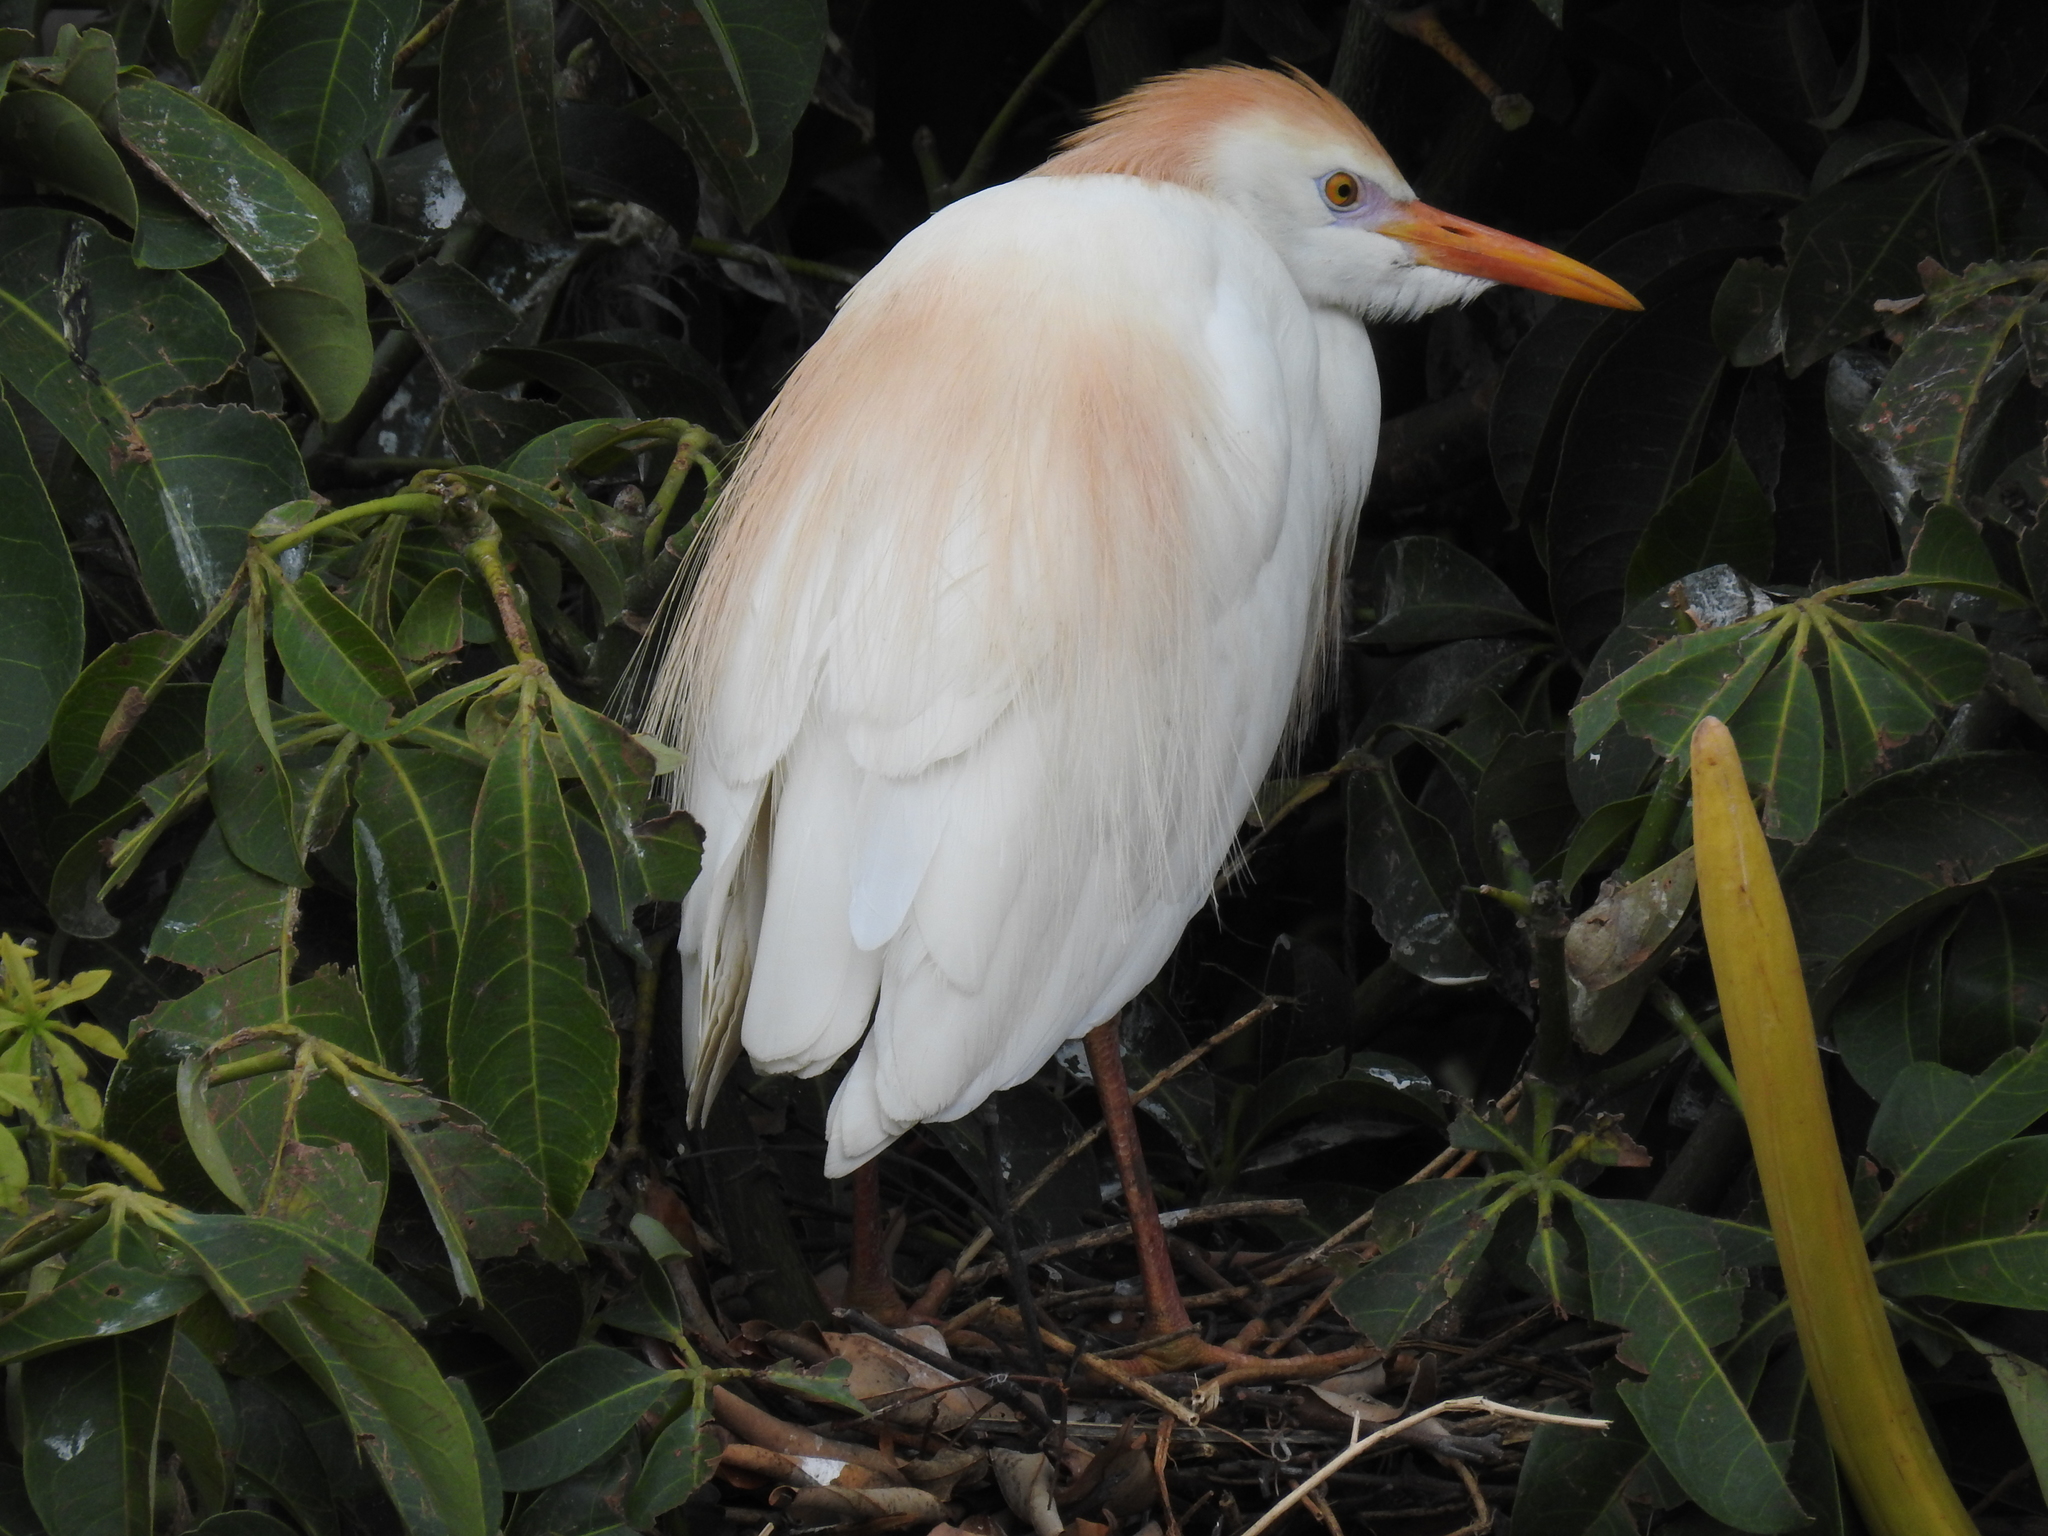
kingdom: Animalia
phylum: Chordata
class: Aves
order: Pelecaniformes
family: Ardeidae
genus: Bubulcus
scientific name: Bubulcus ibis
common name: Cattle egret
